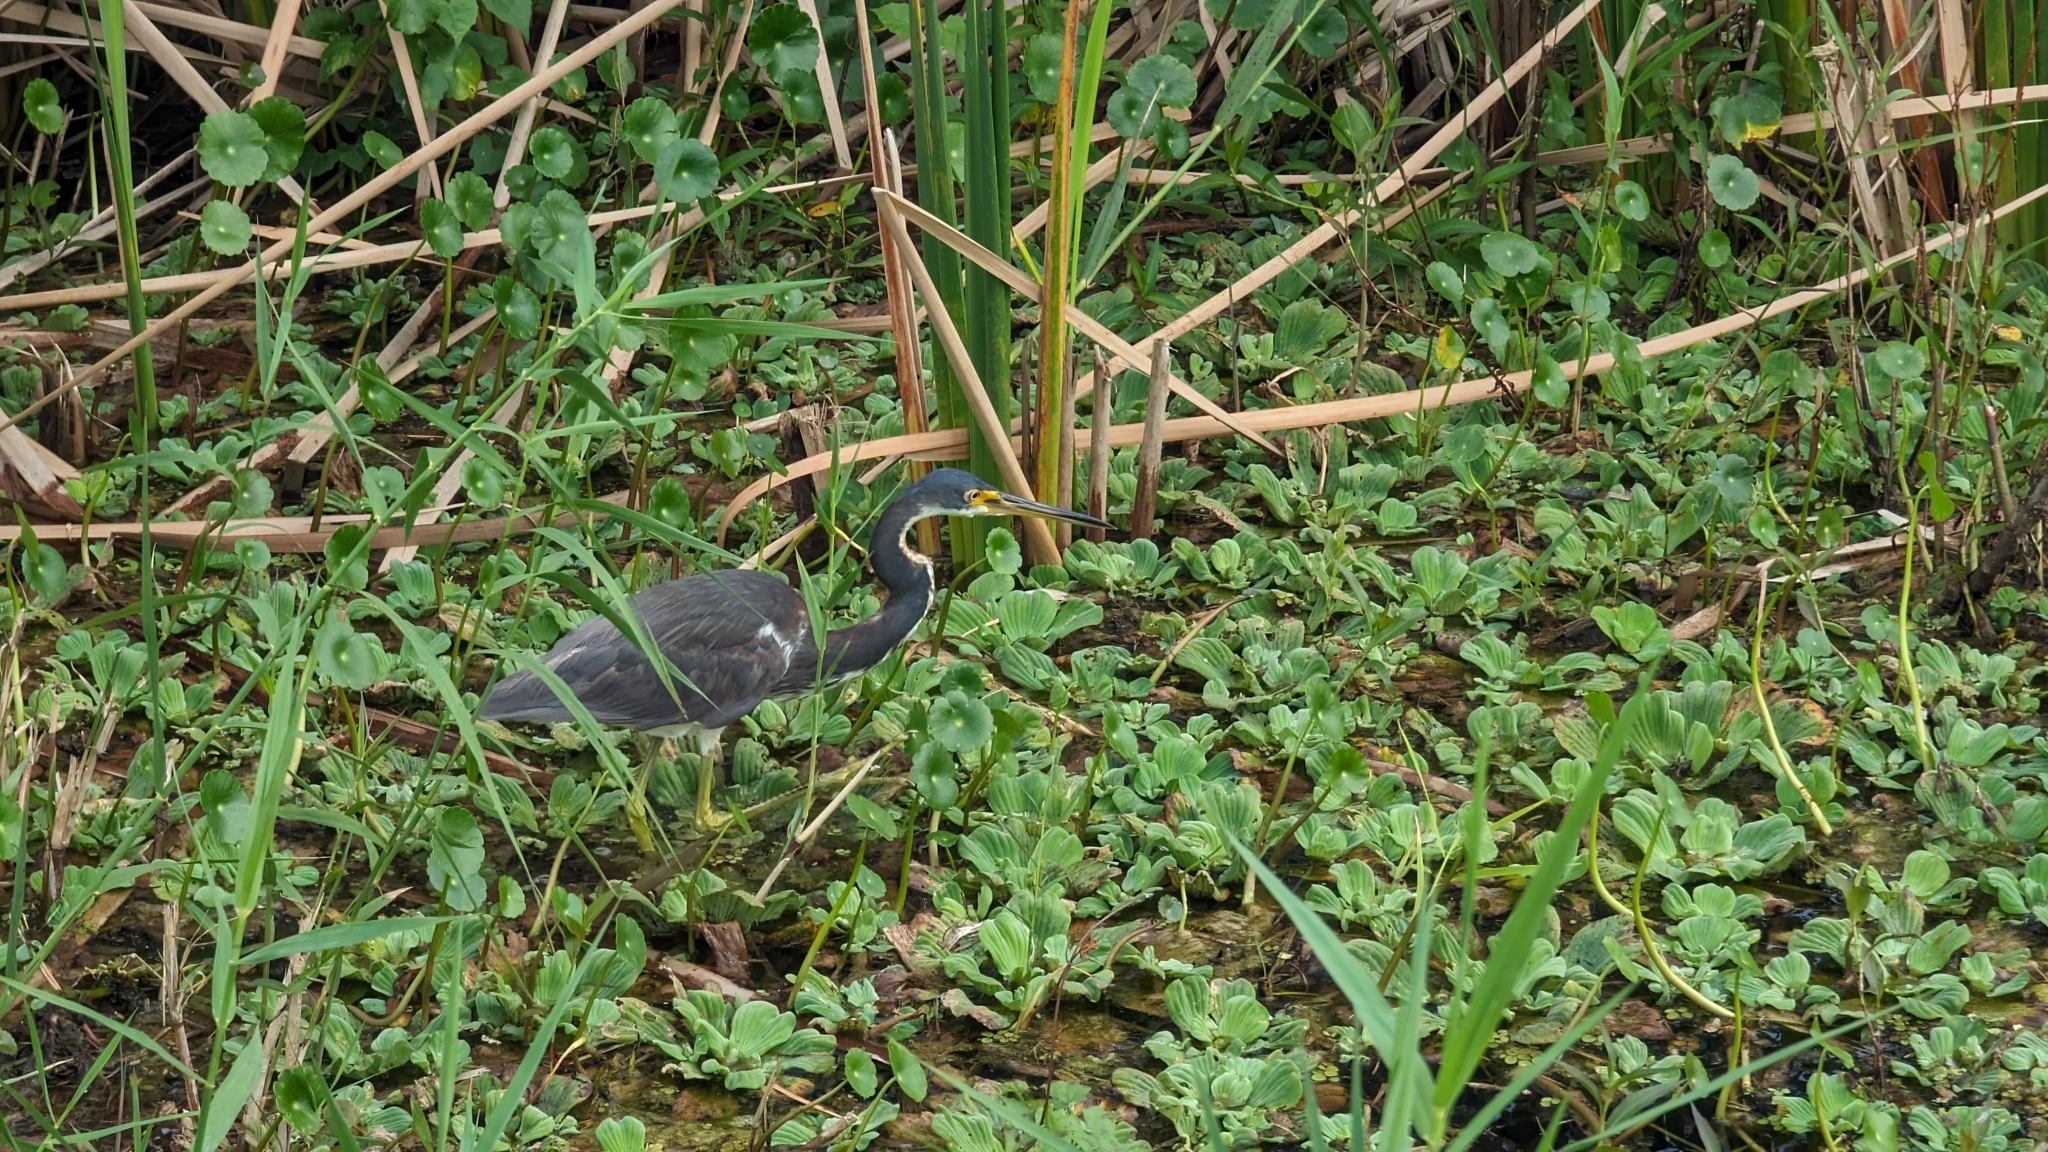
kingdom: Animalia
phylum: Chordata
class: Aves
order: Pelecaniformes
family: Ardeidae
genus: Egretta
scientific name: Egretta tricolor
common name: Tricolored heron
